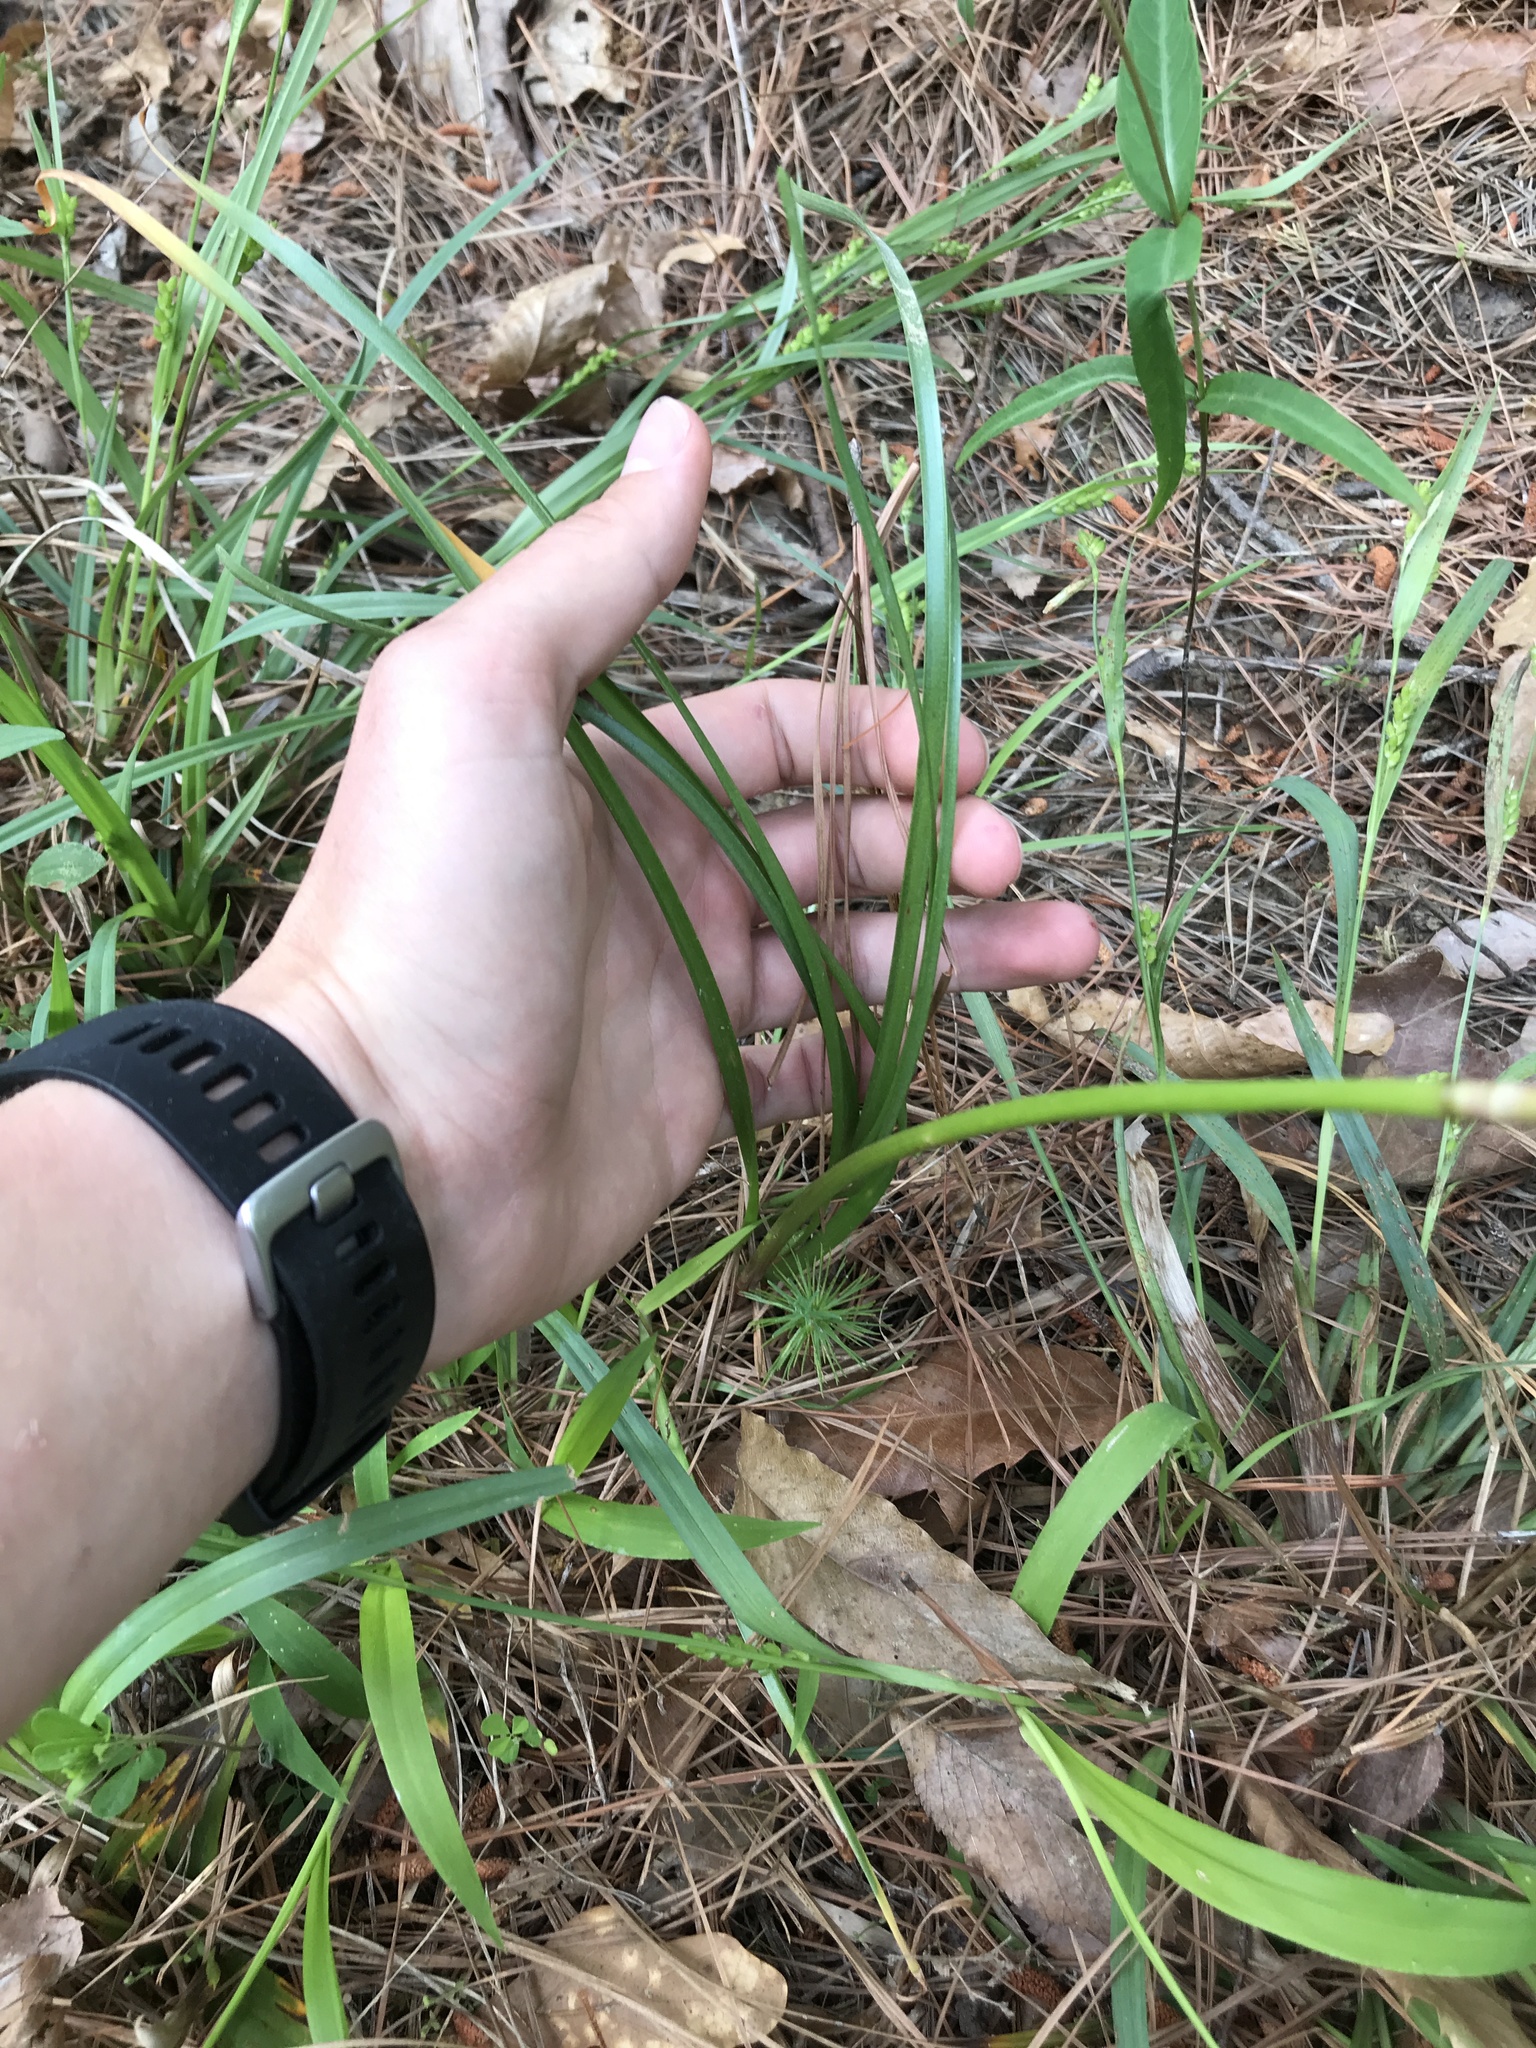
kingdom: Plantae
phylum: Tracheophyta
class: Liliopsida
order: Asparagales
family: Amaryllidaceae
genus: Zephyranthes
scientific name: Zephyranthes atamasco
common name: Atamasco lily
